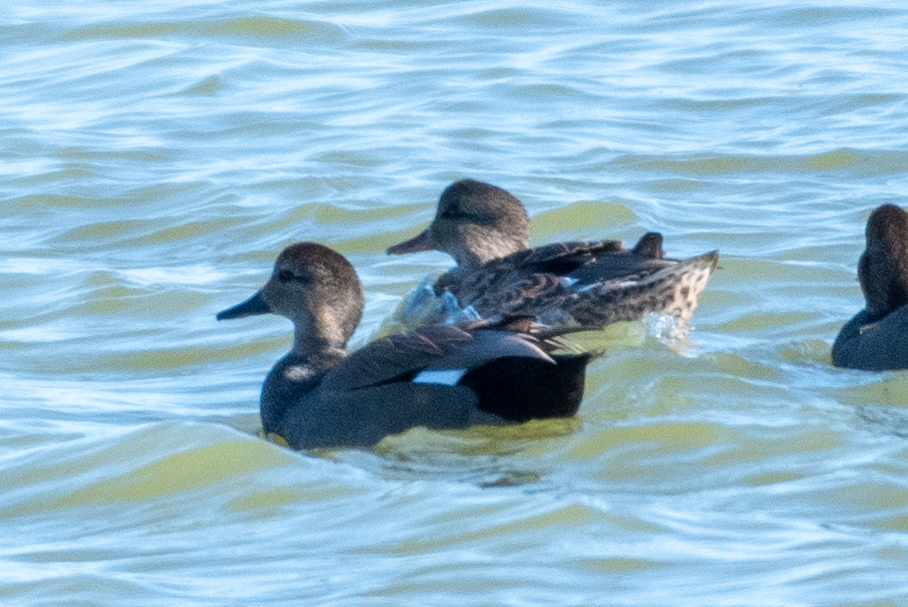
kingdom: Animalia
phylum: Chordata
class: Aves
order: Anseriformes
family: Anatidae
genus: Mareca
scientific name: Mareca strepera
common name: Gadwall
